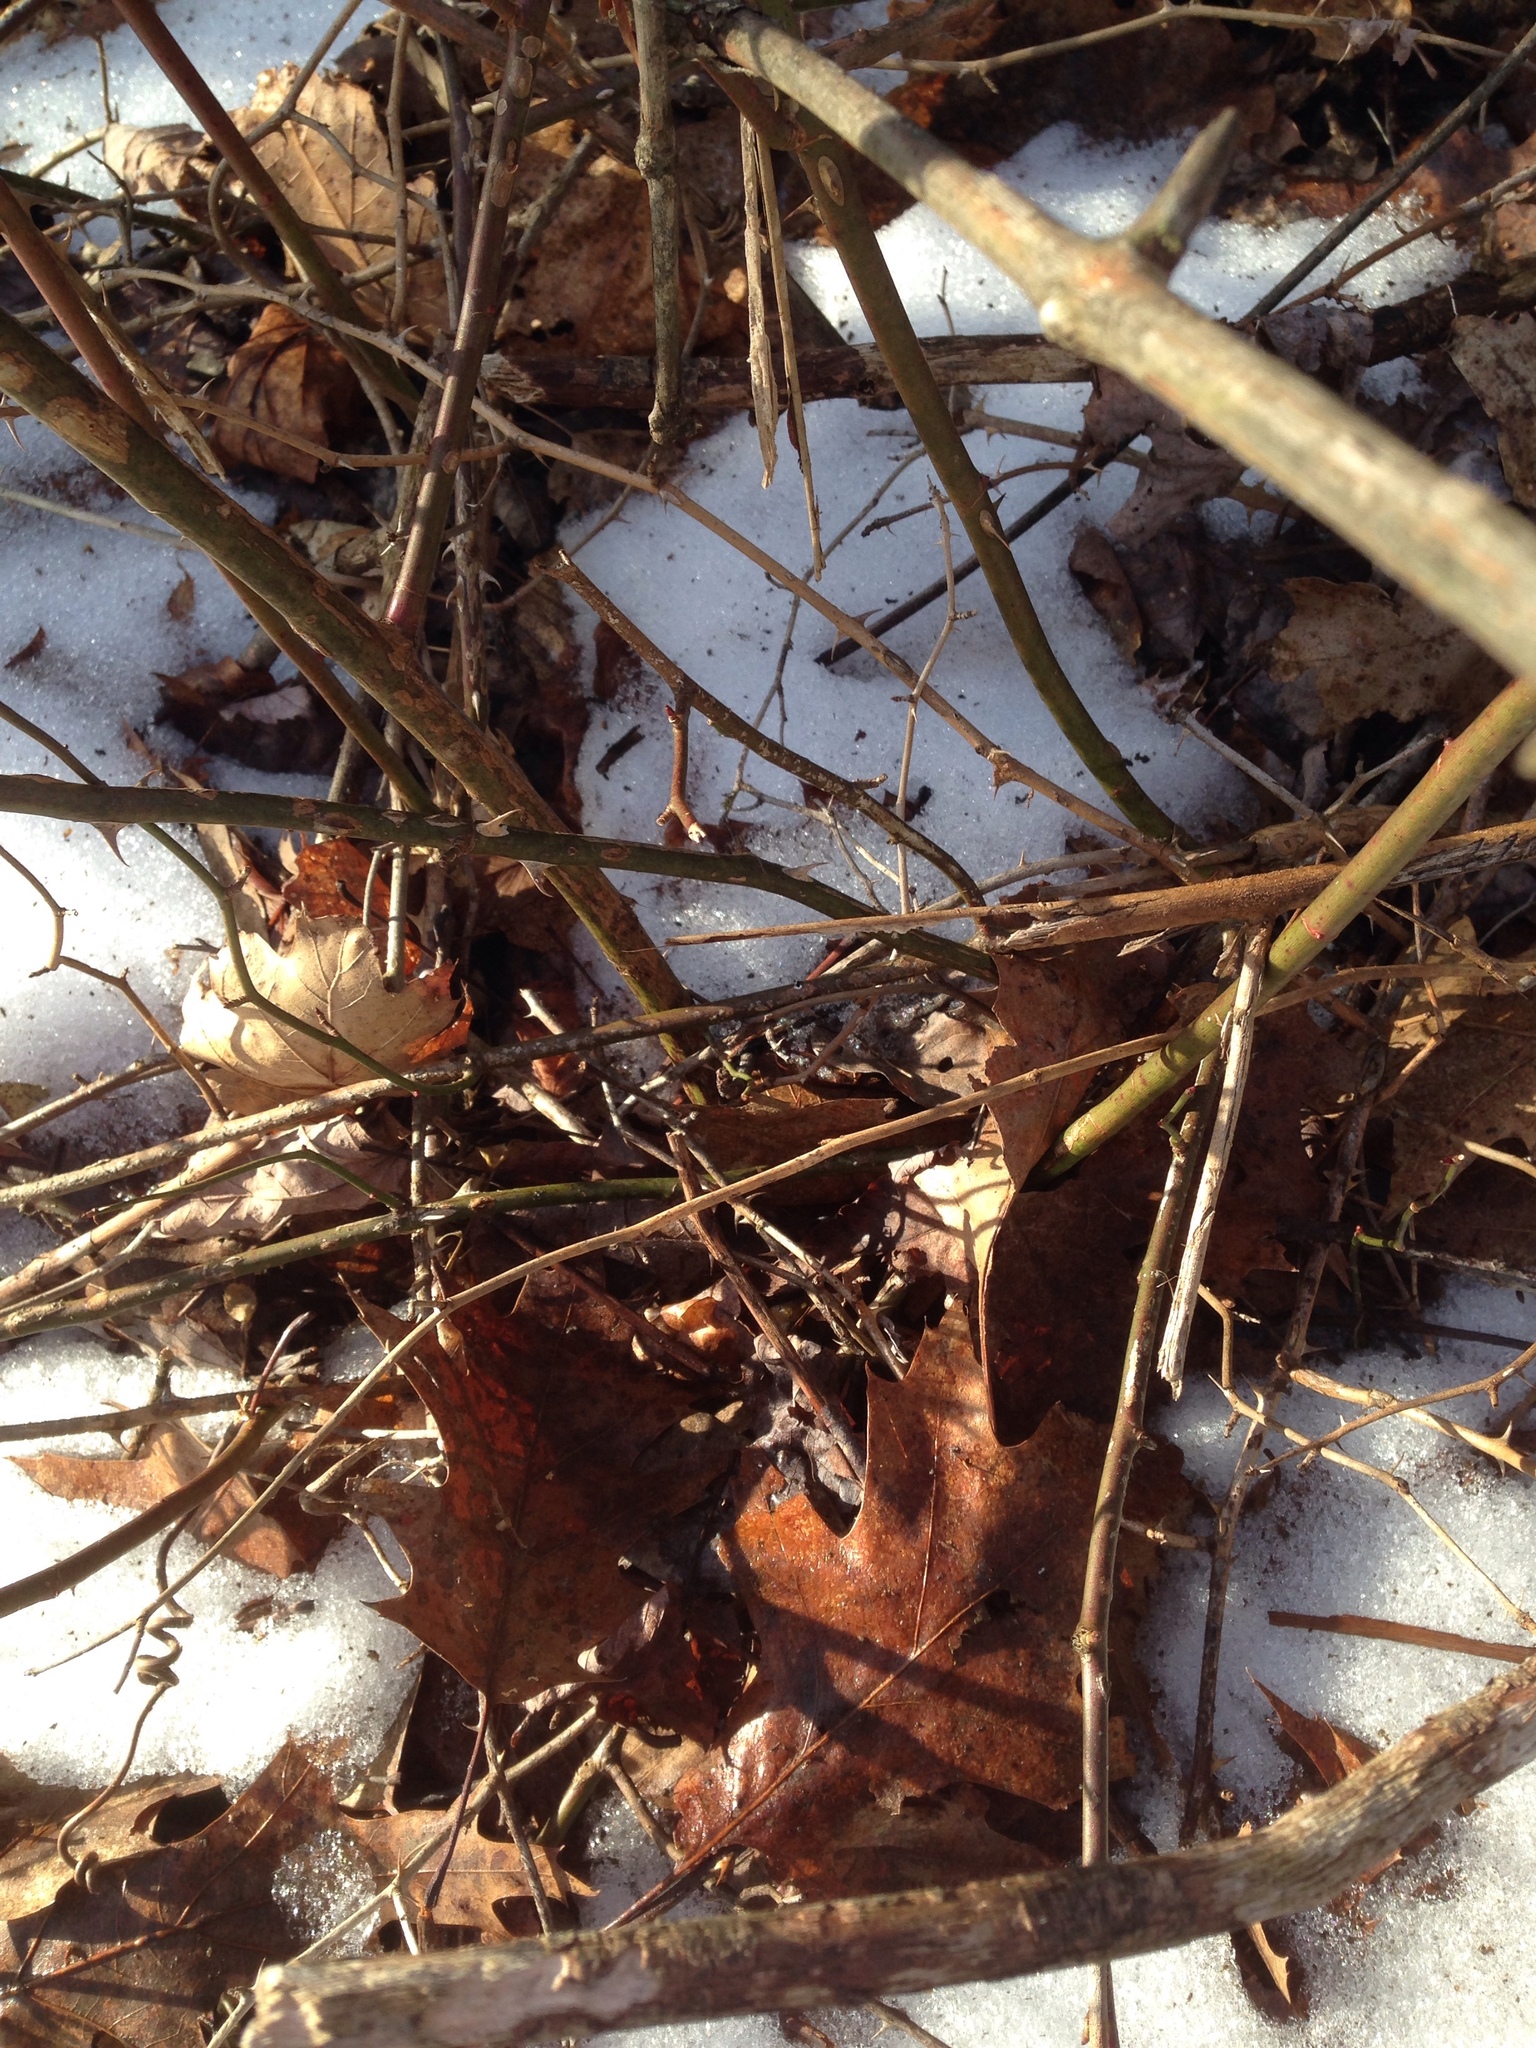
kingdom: Plantae
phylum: Tracheophyta
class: Magnoliopsida
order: Rosales
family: Rosaceae
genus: Rosa
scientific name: Rosa multiflora
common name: Multiflora rose
